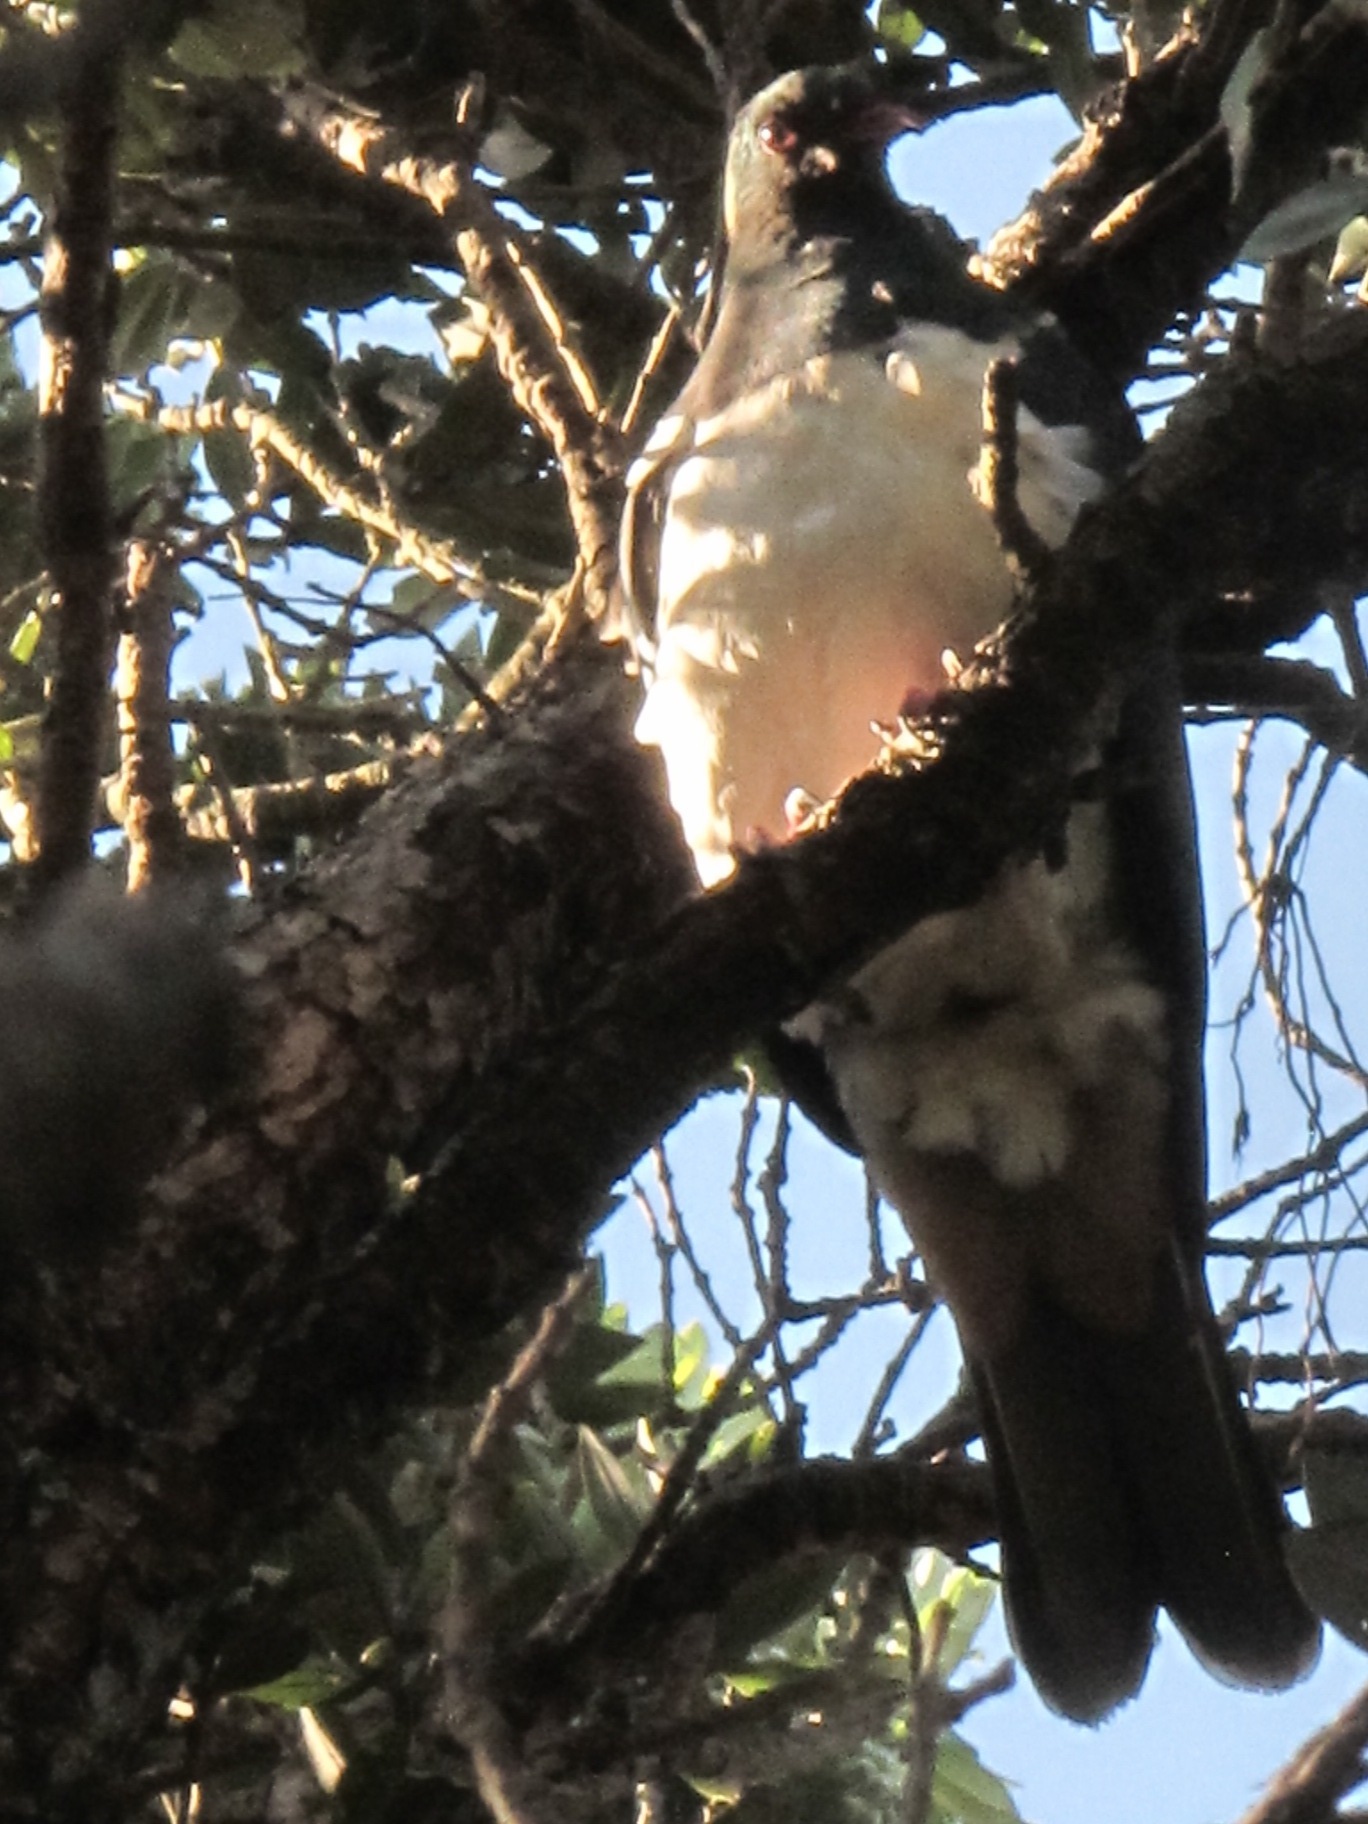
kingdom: Animalia
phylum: Chordata
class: Aves
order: Columbiformes
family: Columbidae
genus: Hemiphaga
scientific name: Hemiphaga novaeseelandiae
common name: New zealand pigeon
